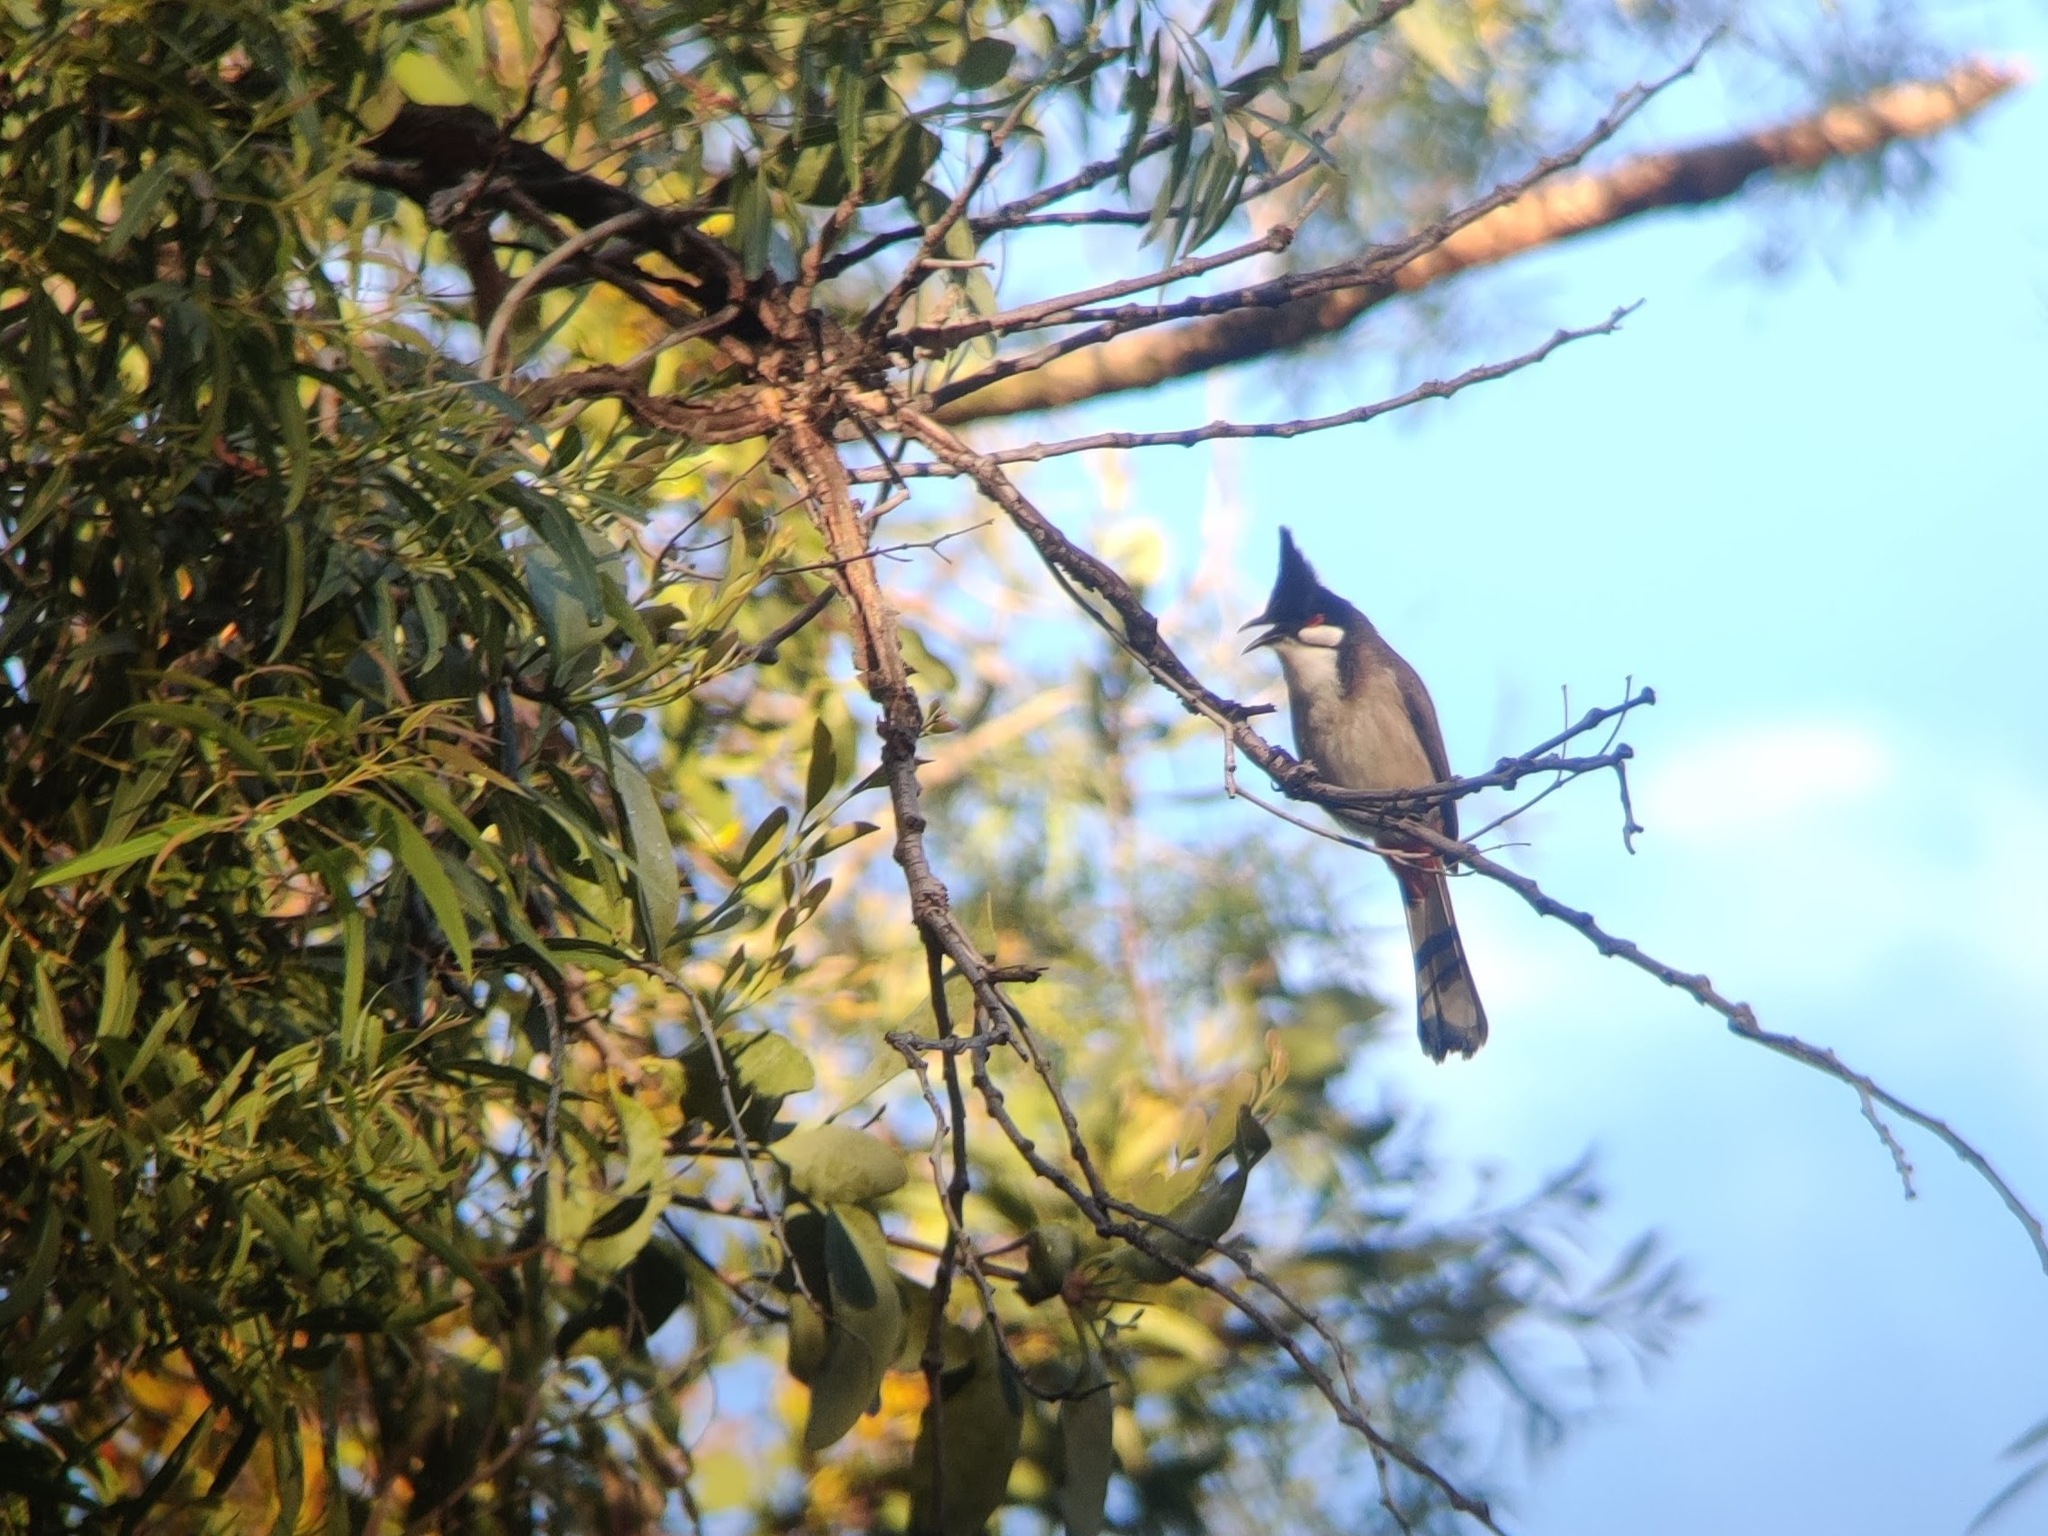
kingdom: Animalia
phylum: Chordata
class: Aves
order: Passeriformes
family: Pycnonotidae
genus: Pycnonotus
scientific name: Pycnonotus jocosus
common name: Red-whiskered bulbul
